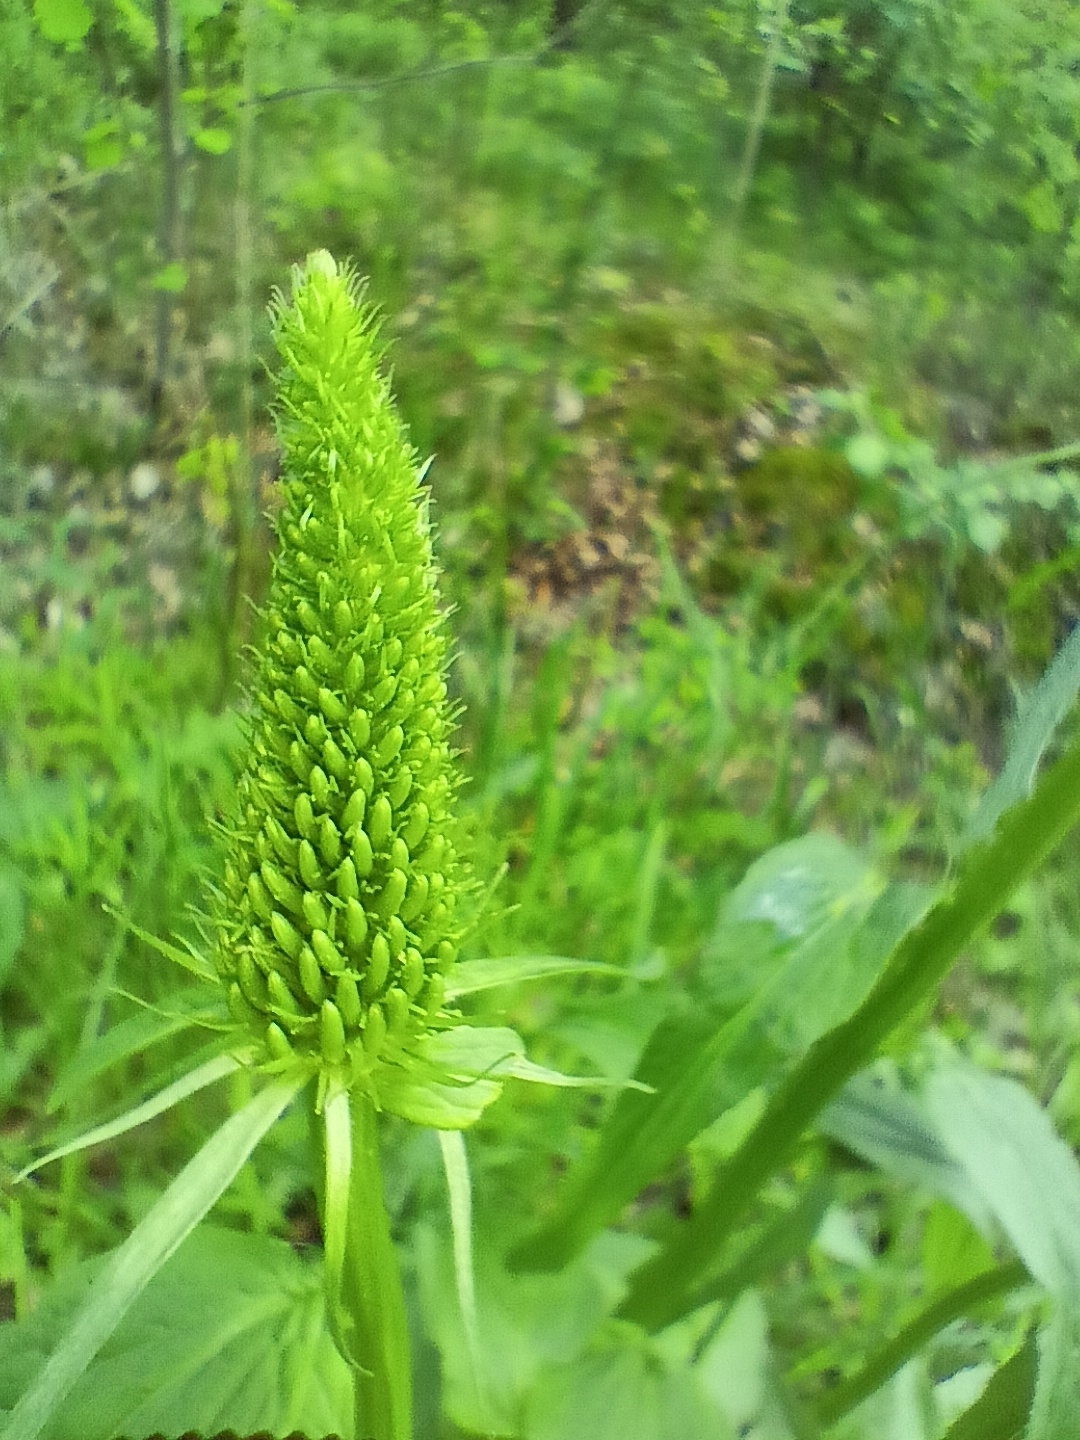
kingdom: Plantae
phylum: Tracheophyta
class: Magnoliopsida
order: Asterales
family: Campanulaceae
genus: Phyteuma
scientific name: Phyteuma spicatum
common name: Spiked rampion
